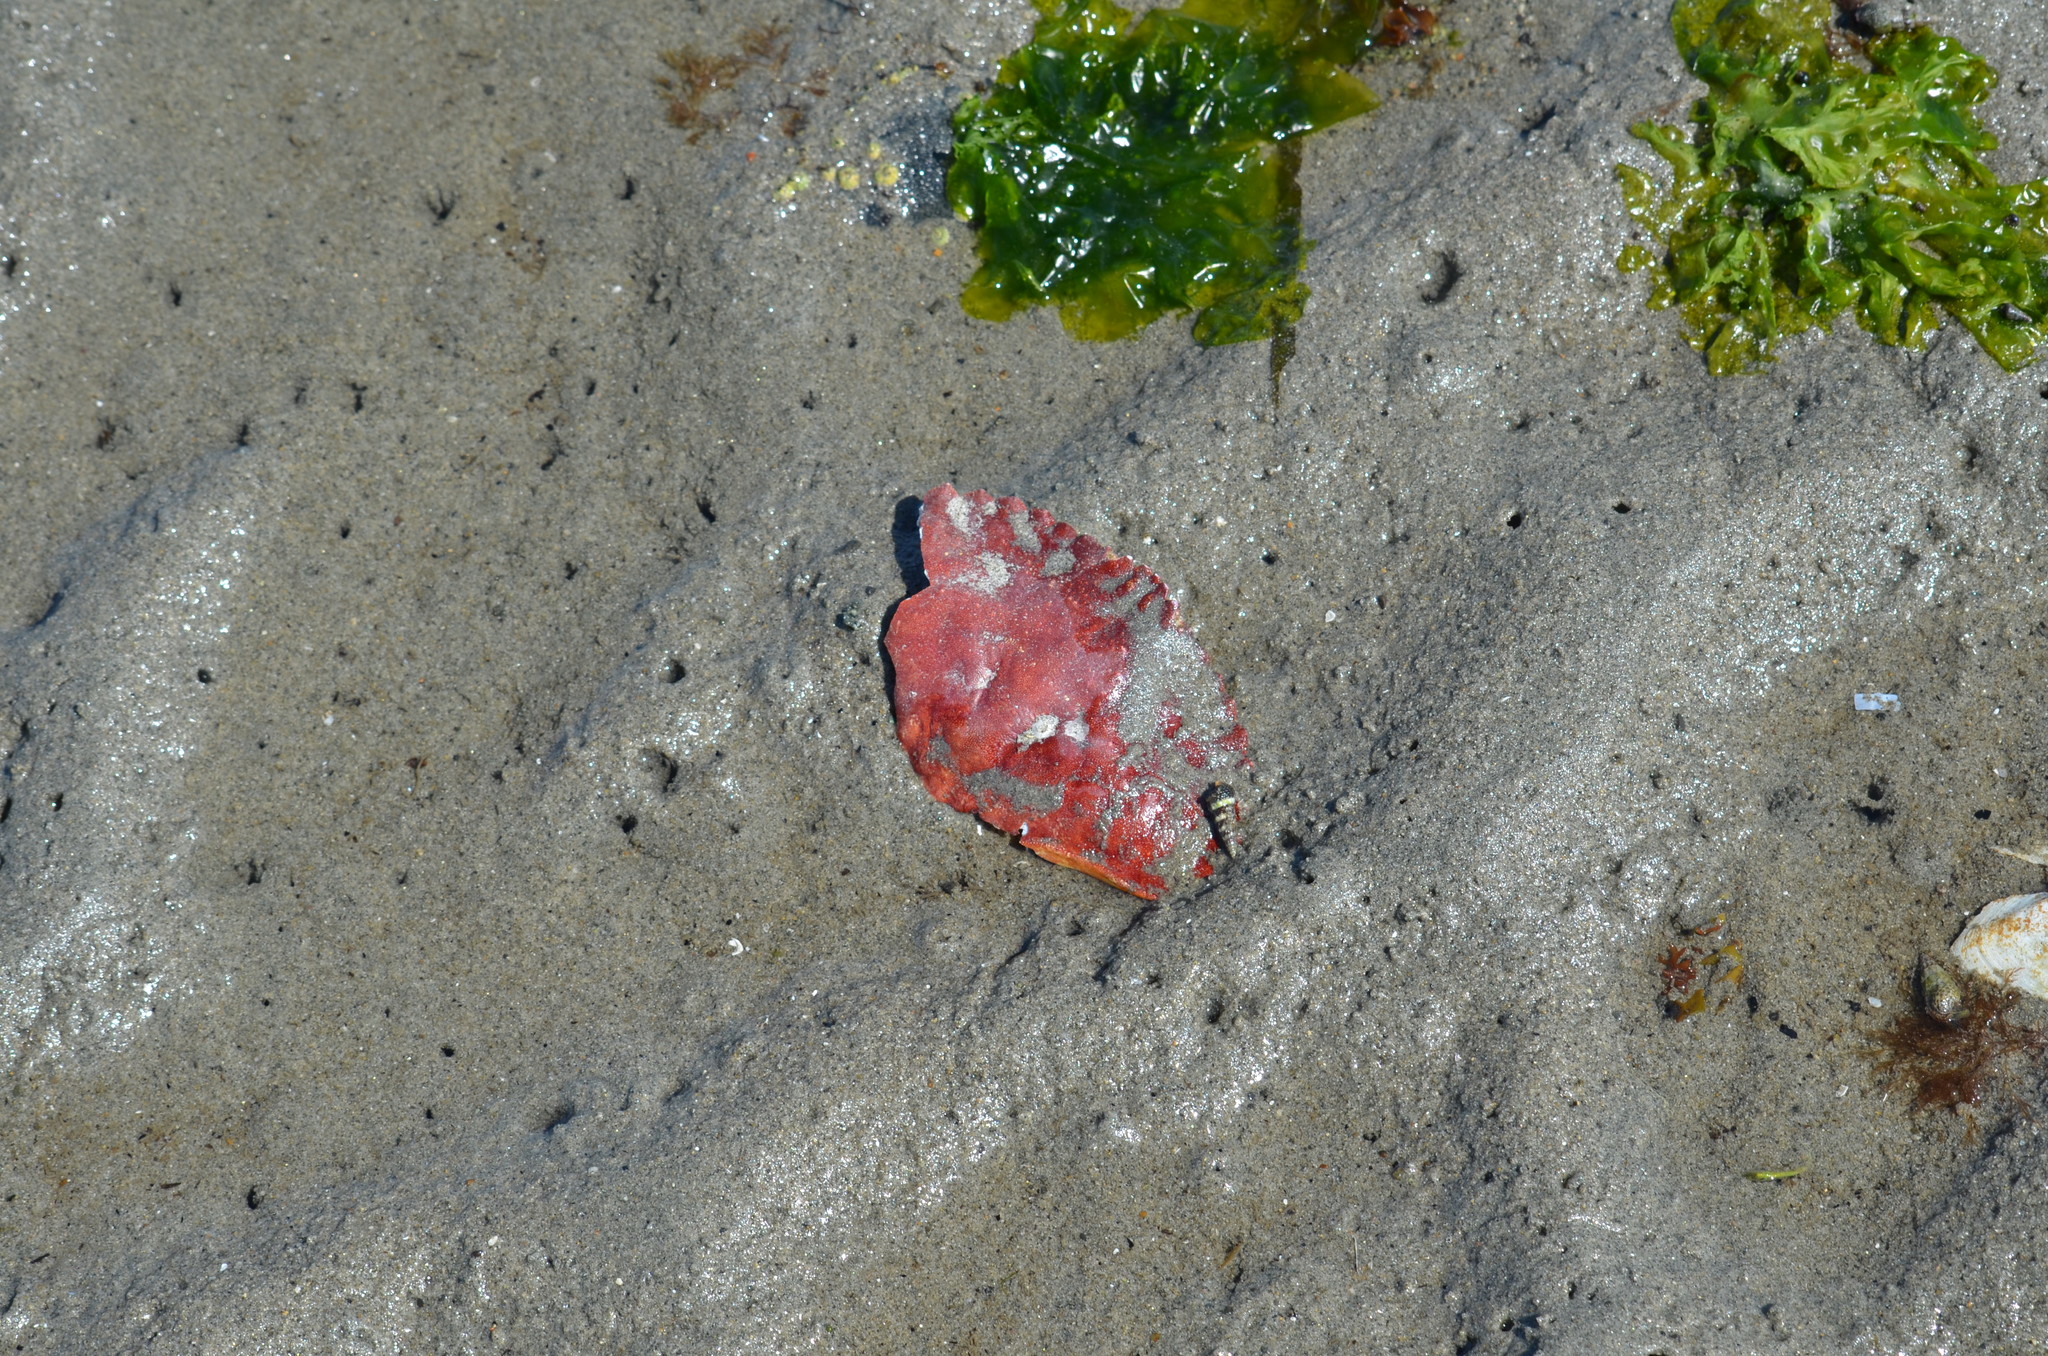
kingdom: Animalia
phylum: Arthropoda
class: Malacostraca
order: Decapoda
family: Cancridae
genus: Cancer
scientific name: Cancer productus
